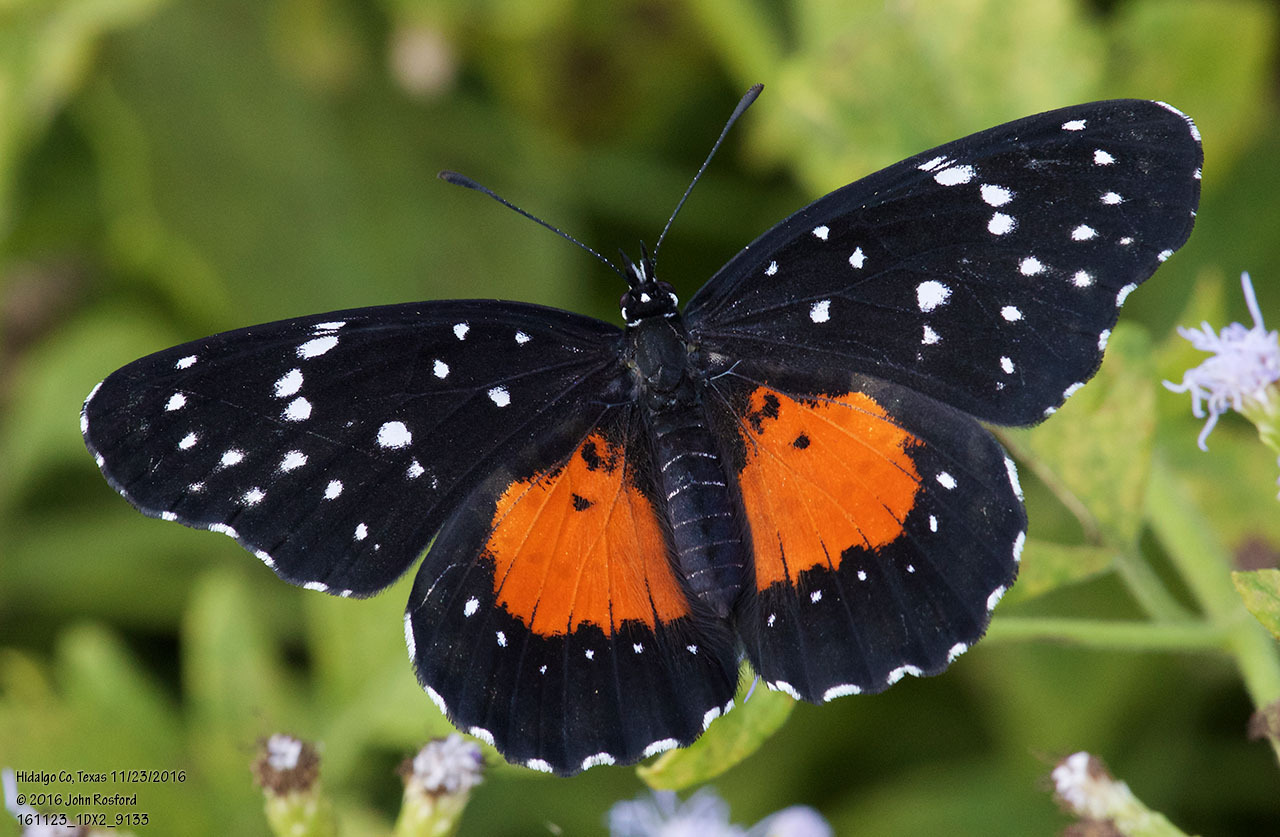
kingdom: Animalia
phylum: Arthropoda
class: Insecta
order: Lepidoptera
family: Nymphalidae
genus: Chlosyne
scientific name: Chlosyne janais
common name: Crimson patch
